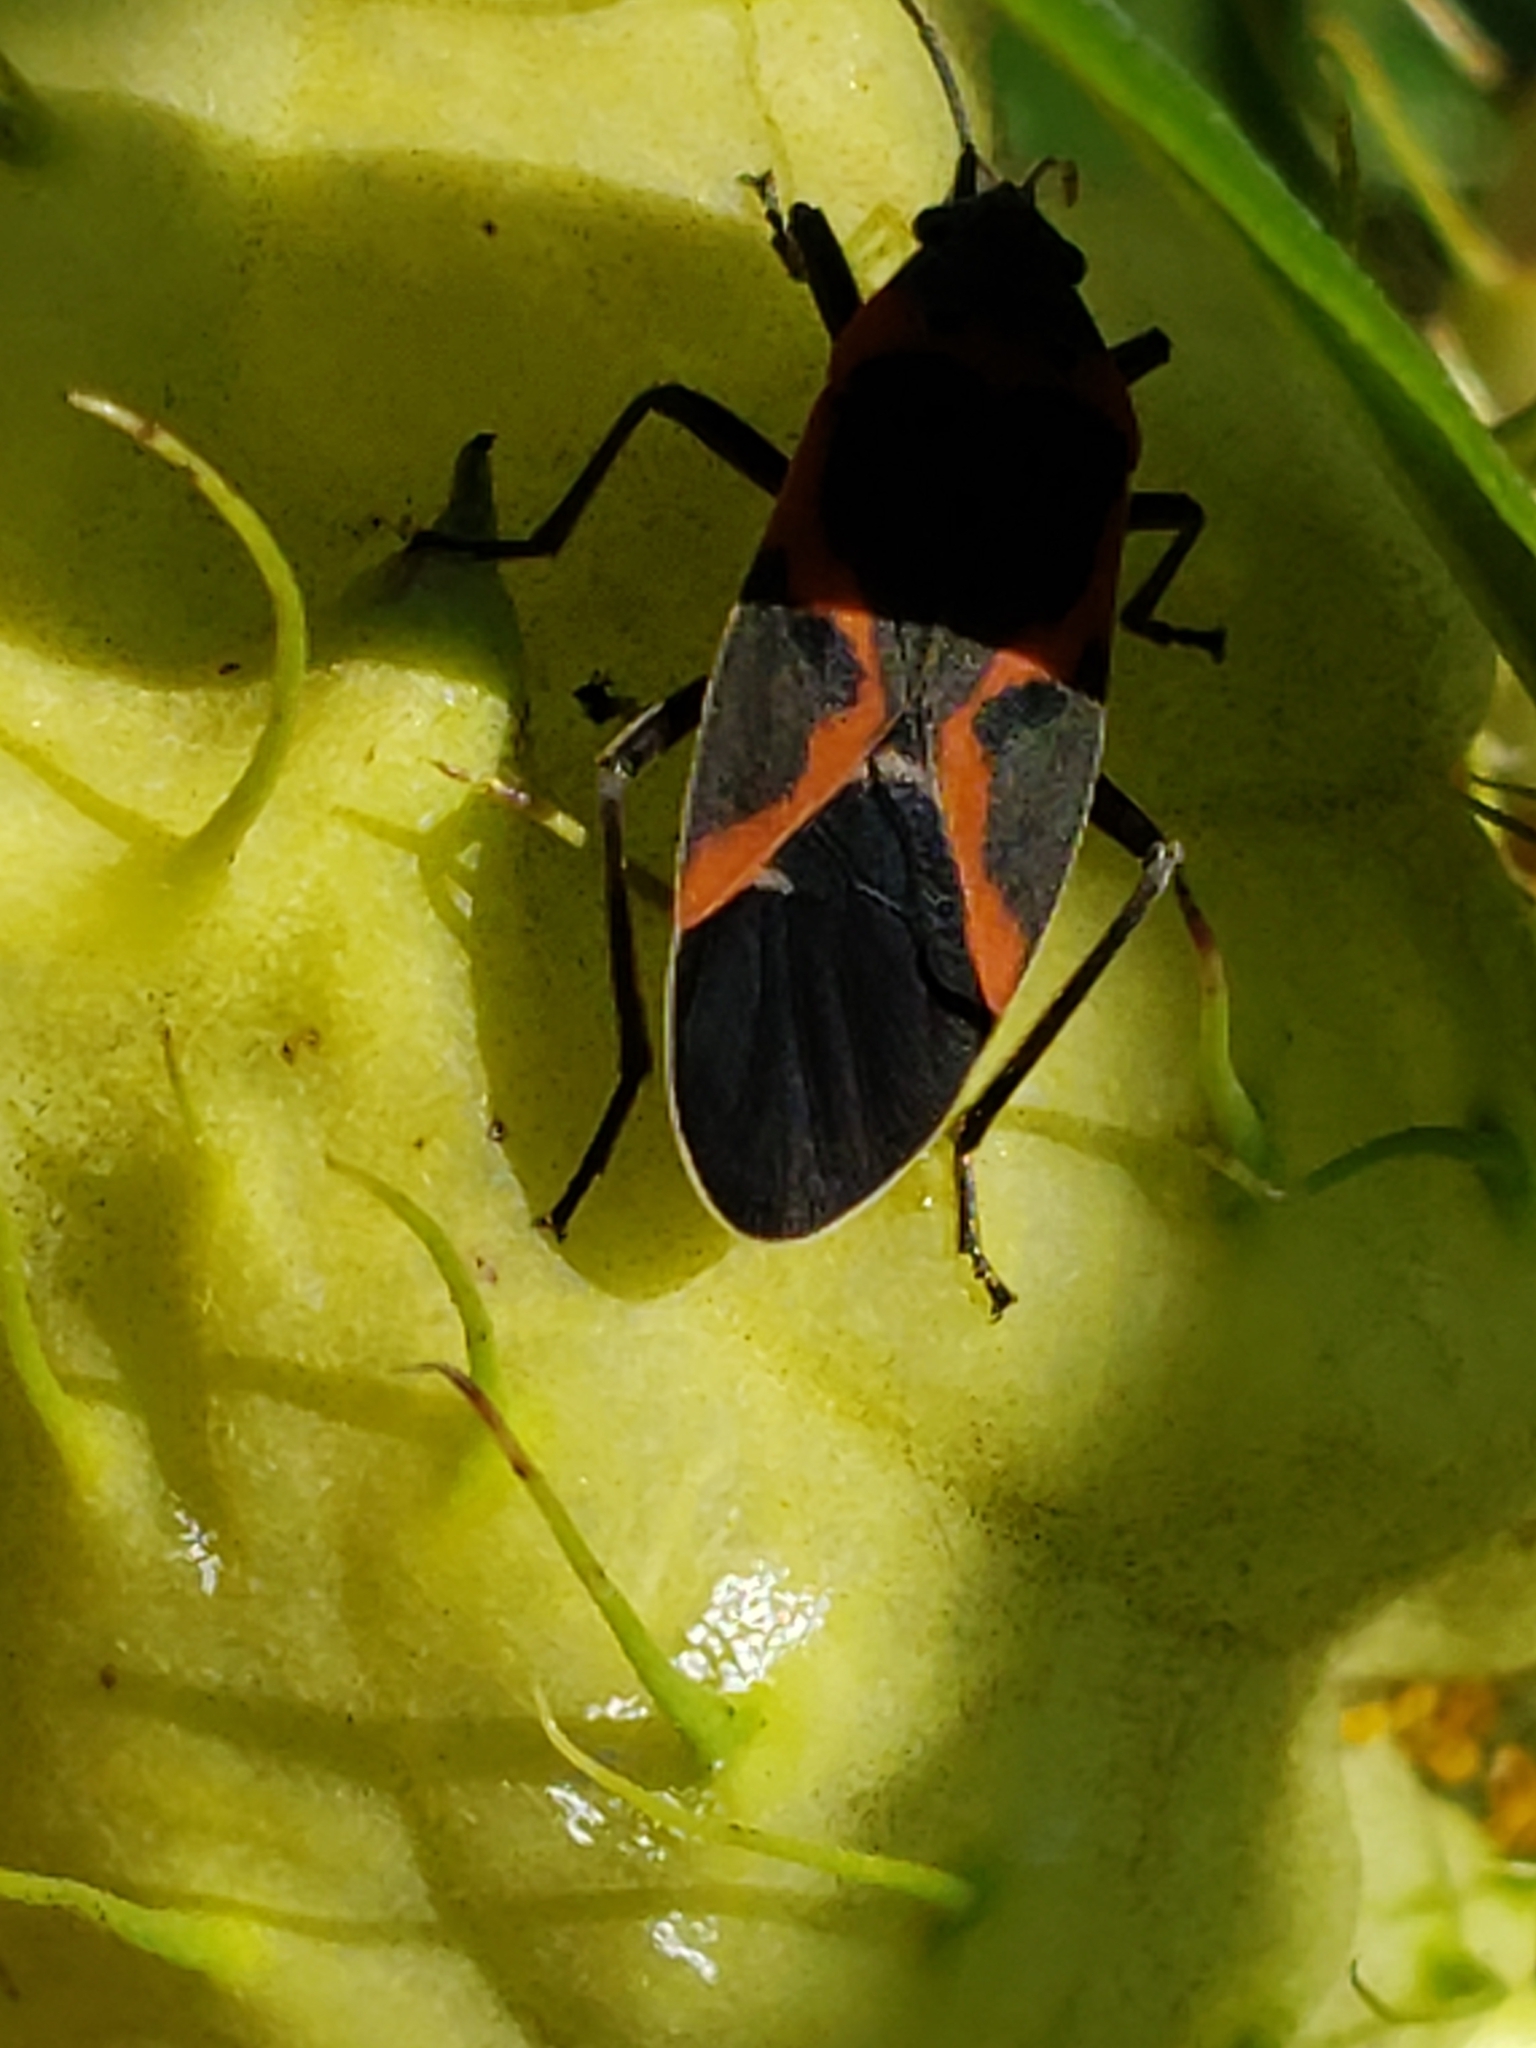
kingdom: Animalia
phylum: Arthropoda
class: Insecta
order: Hemiptera
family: Lygaeidae
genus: Lygaeus
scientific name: Lygaeus kalmii
